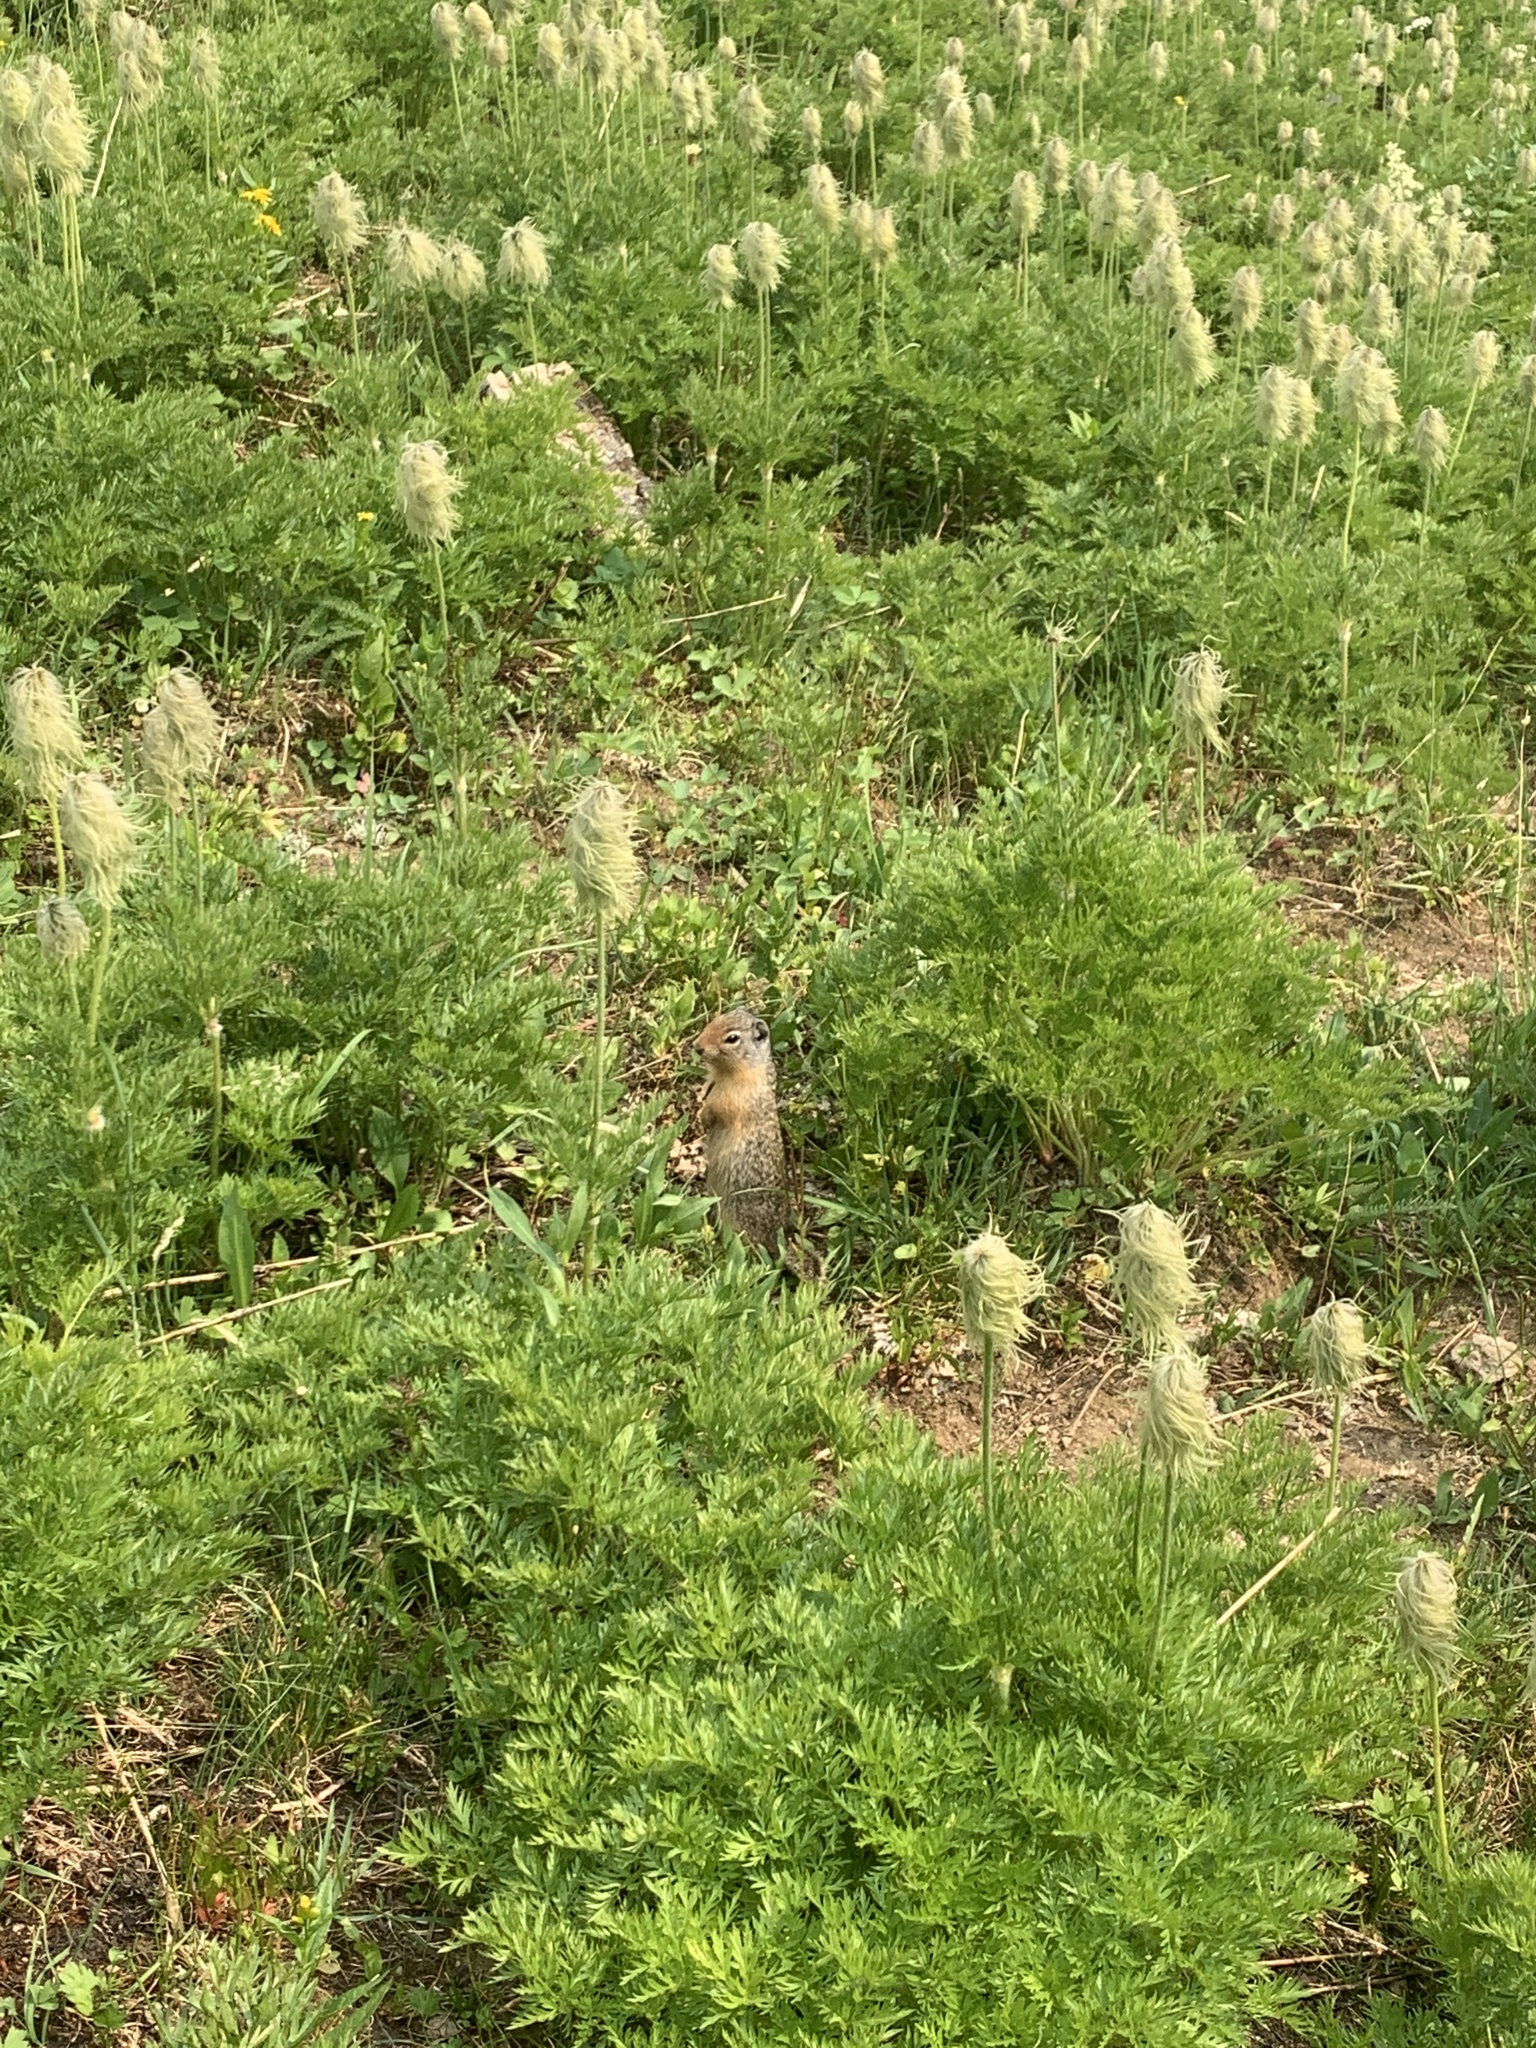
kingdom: Animalia
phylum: Chordata
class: Mammalia
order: Rodentia
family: Sciuridae
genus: Urocitellus
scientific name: Urocitellus columbianus
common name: Columbian ground squirrel
